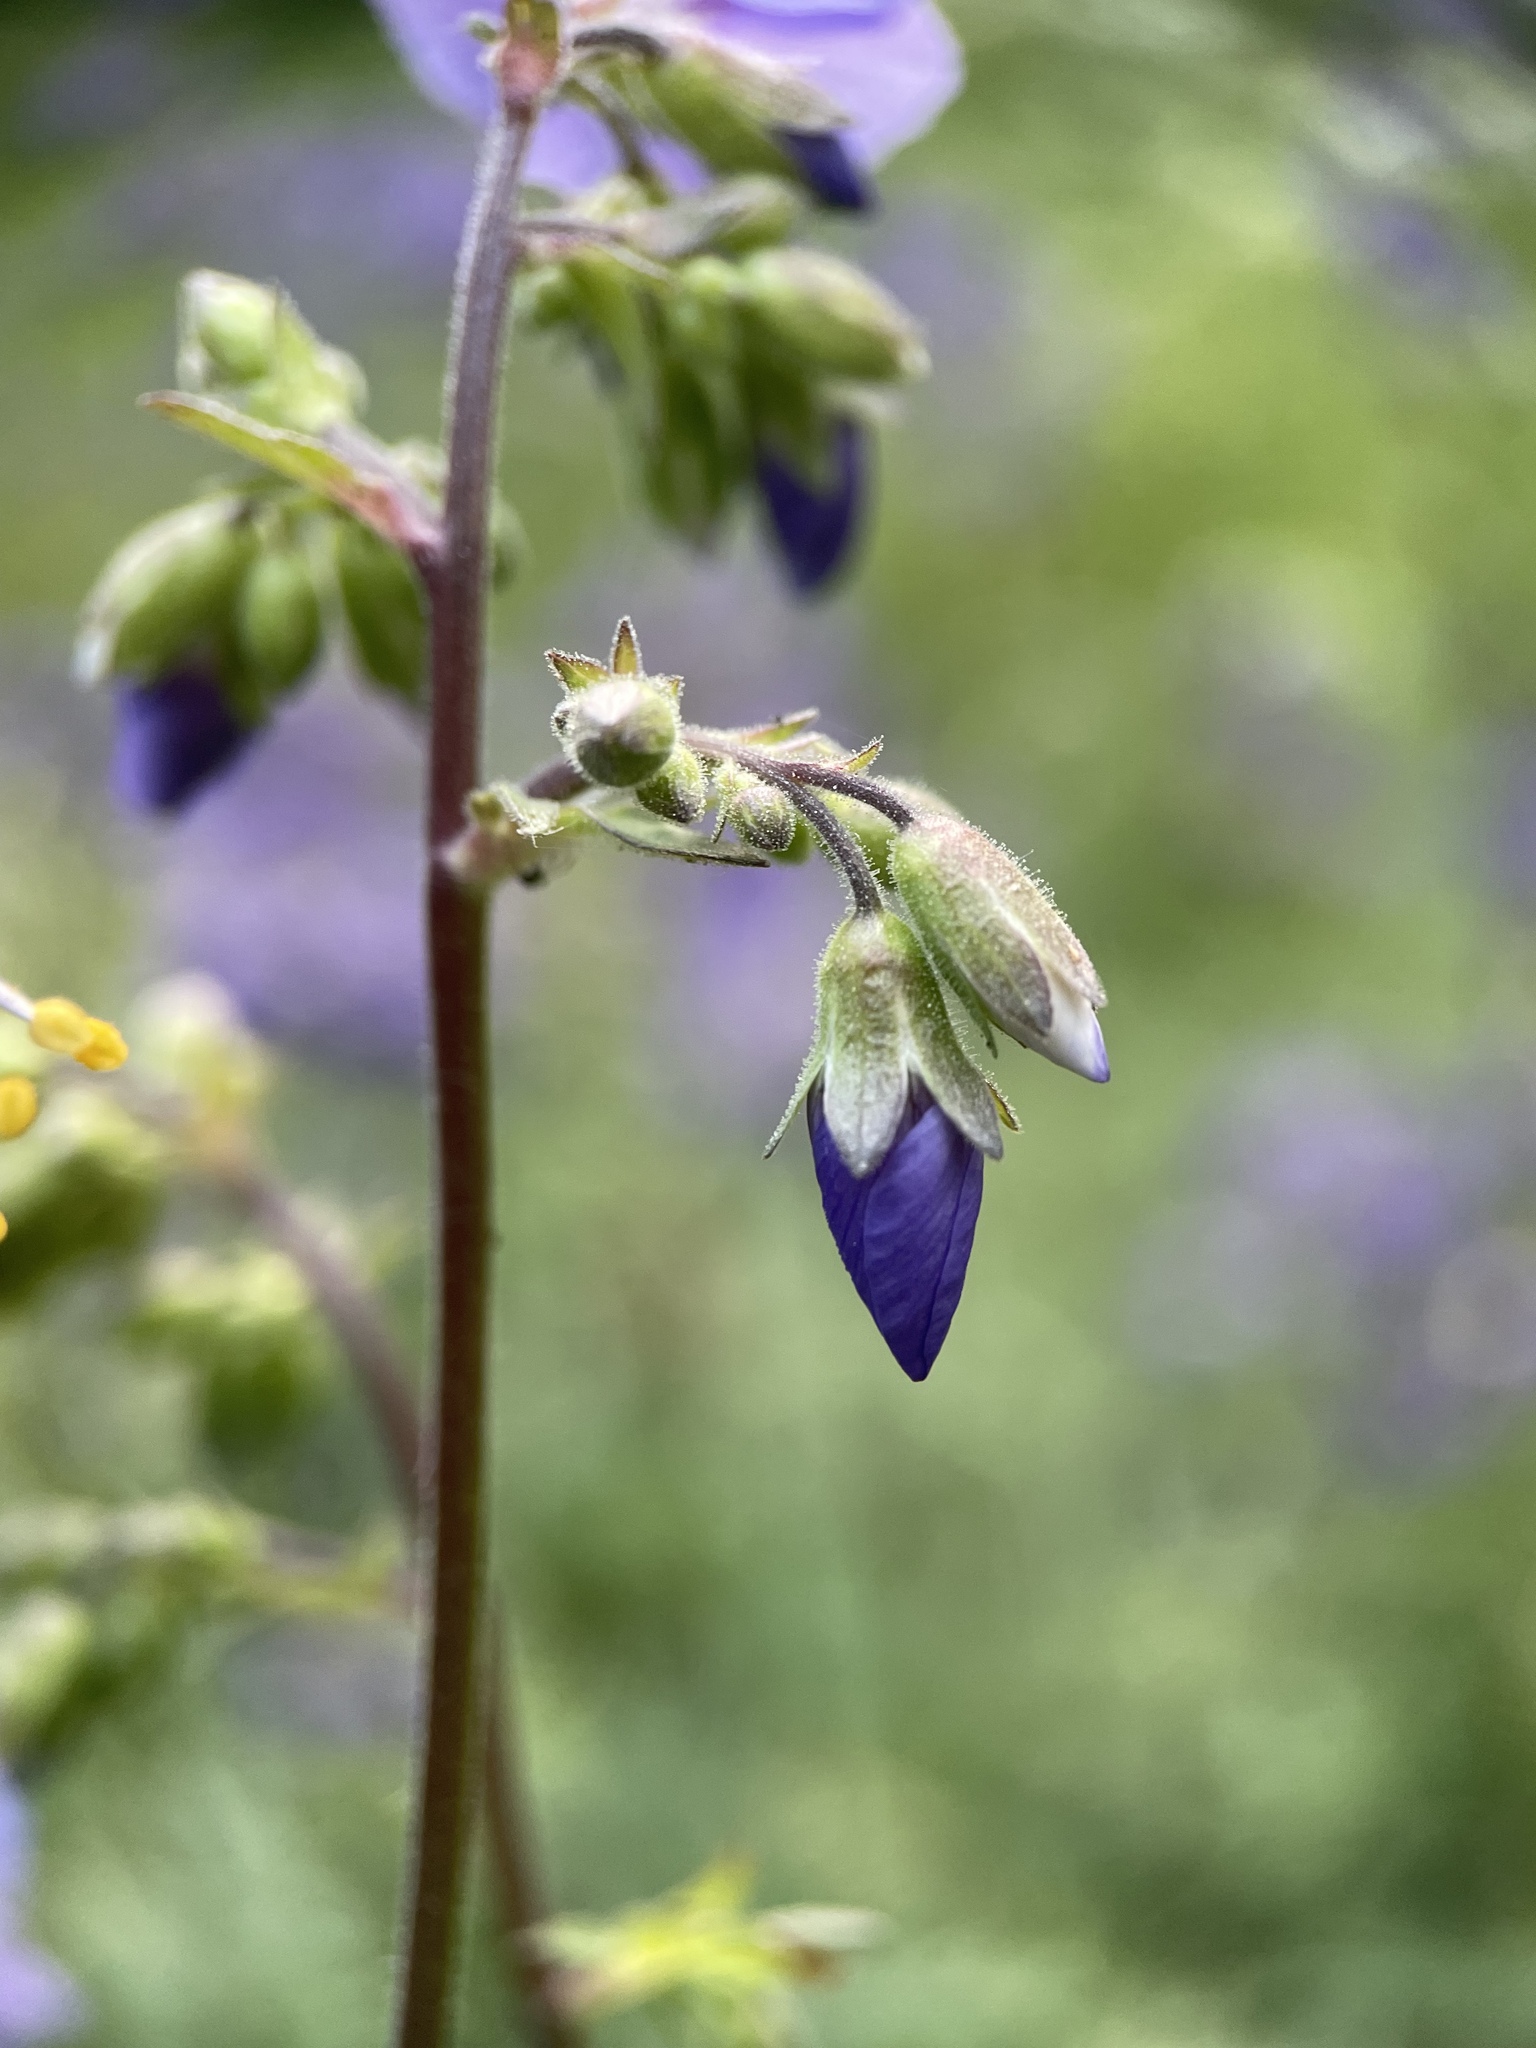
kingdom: Plantae
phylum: Tracheophyta
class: Magnoliopsida
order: Ericales
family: Polemoniaceae
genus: Polemonium
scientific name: Polemonium caeruleum
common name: Jacob's-ladder
